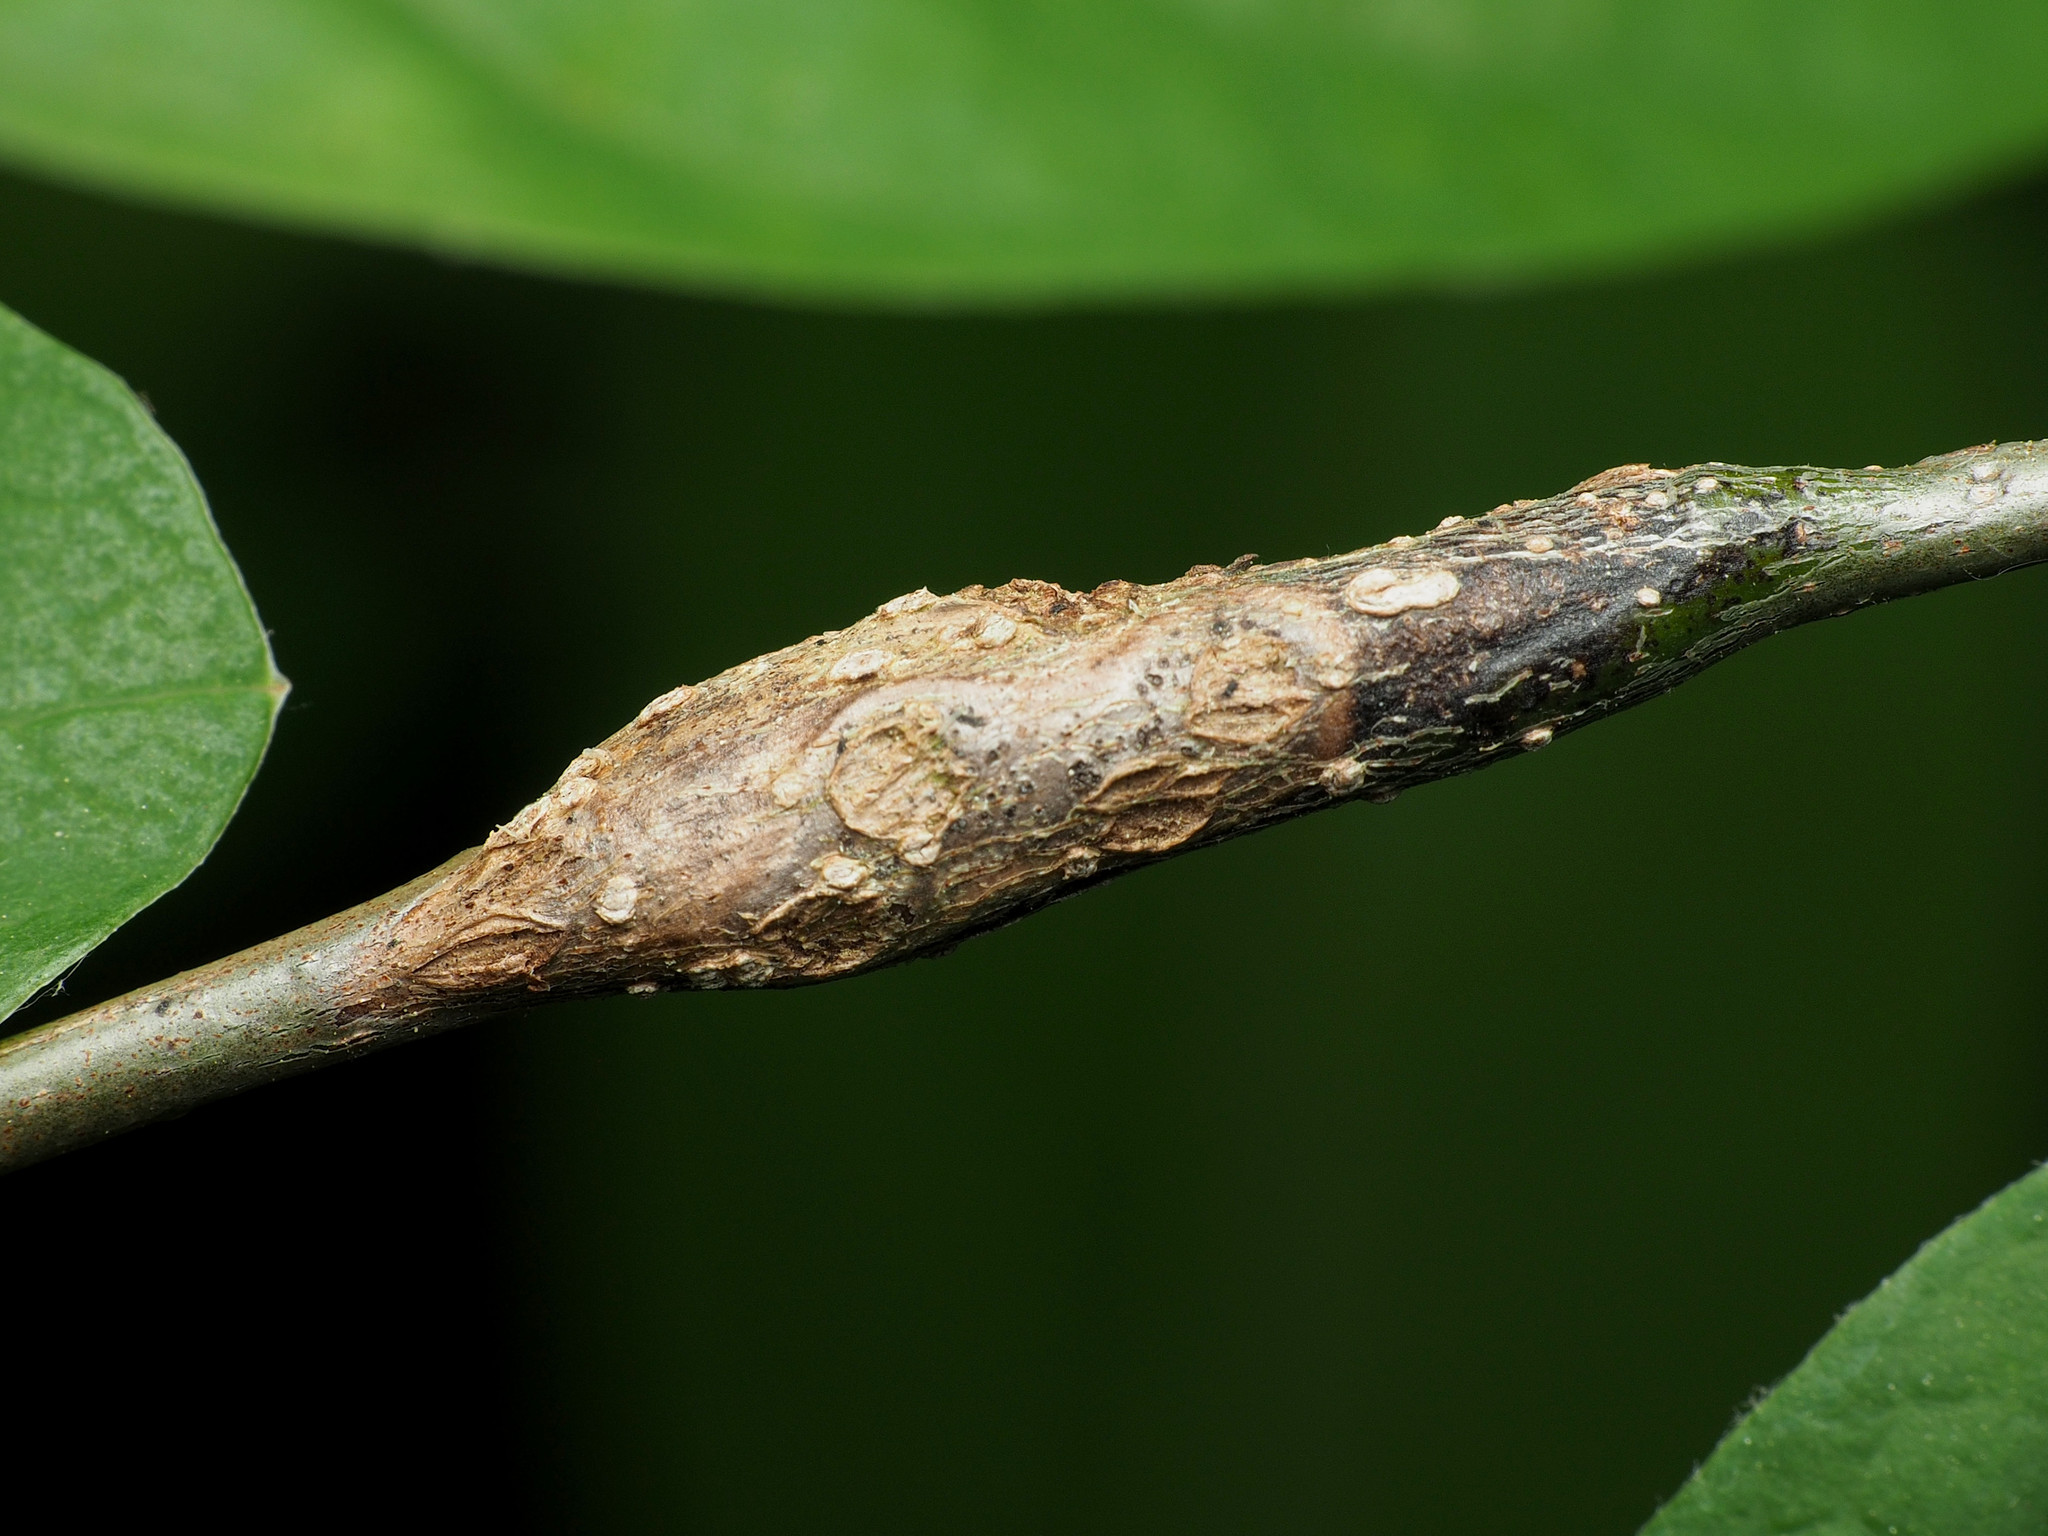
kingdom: Animalia
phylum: Arthropoda
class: Insecta
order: Diptera
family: Cecidomyiidae
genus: Neolasioptera
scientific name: Neolasioptera linderae
